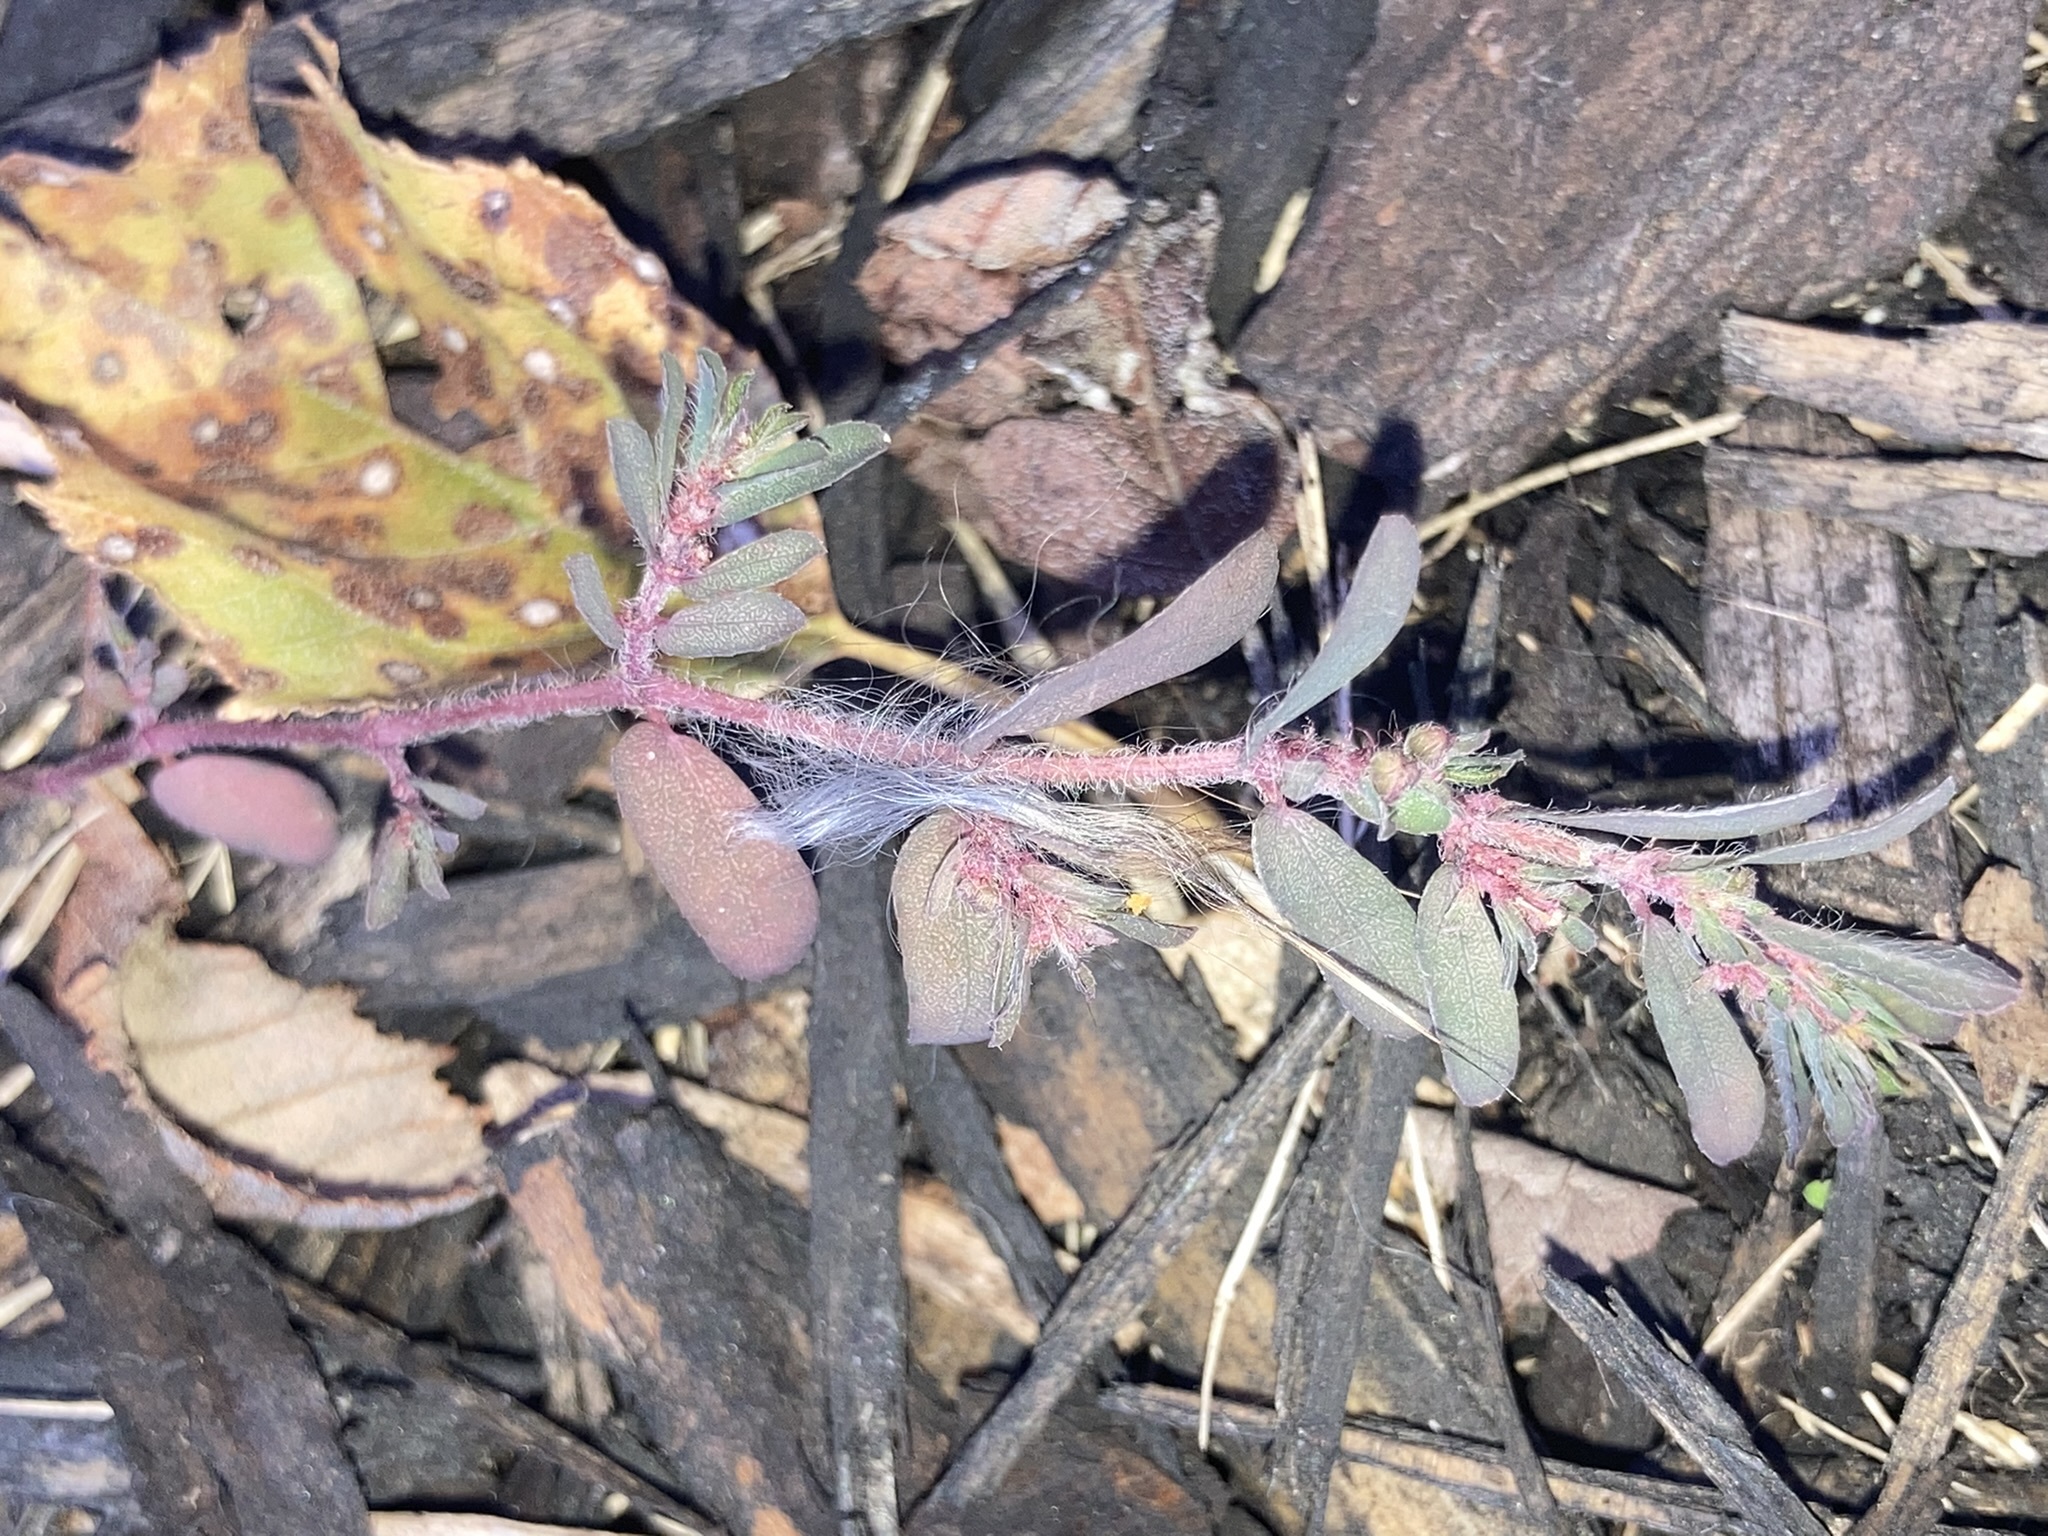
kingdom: Plantae
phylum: Tracheophyta
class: Magnoliopsida
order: Malpighiales
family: Euphorbiaceae
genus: Euphorbia
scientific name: Euphorbia maculata
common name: Spotted spurge
